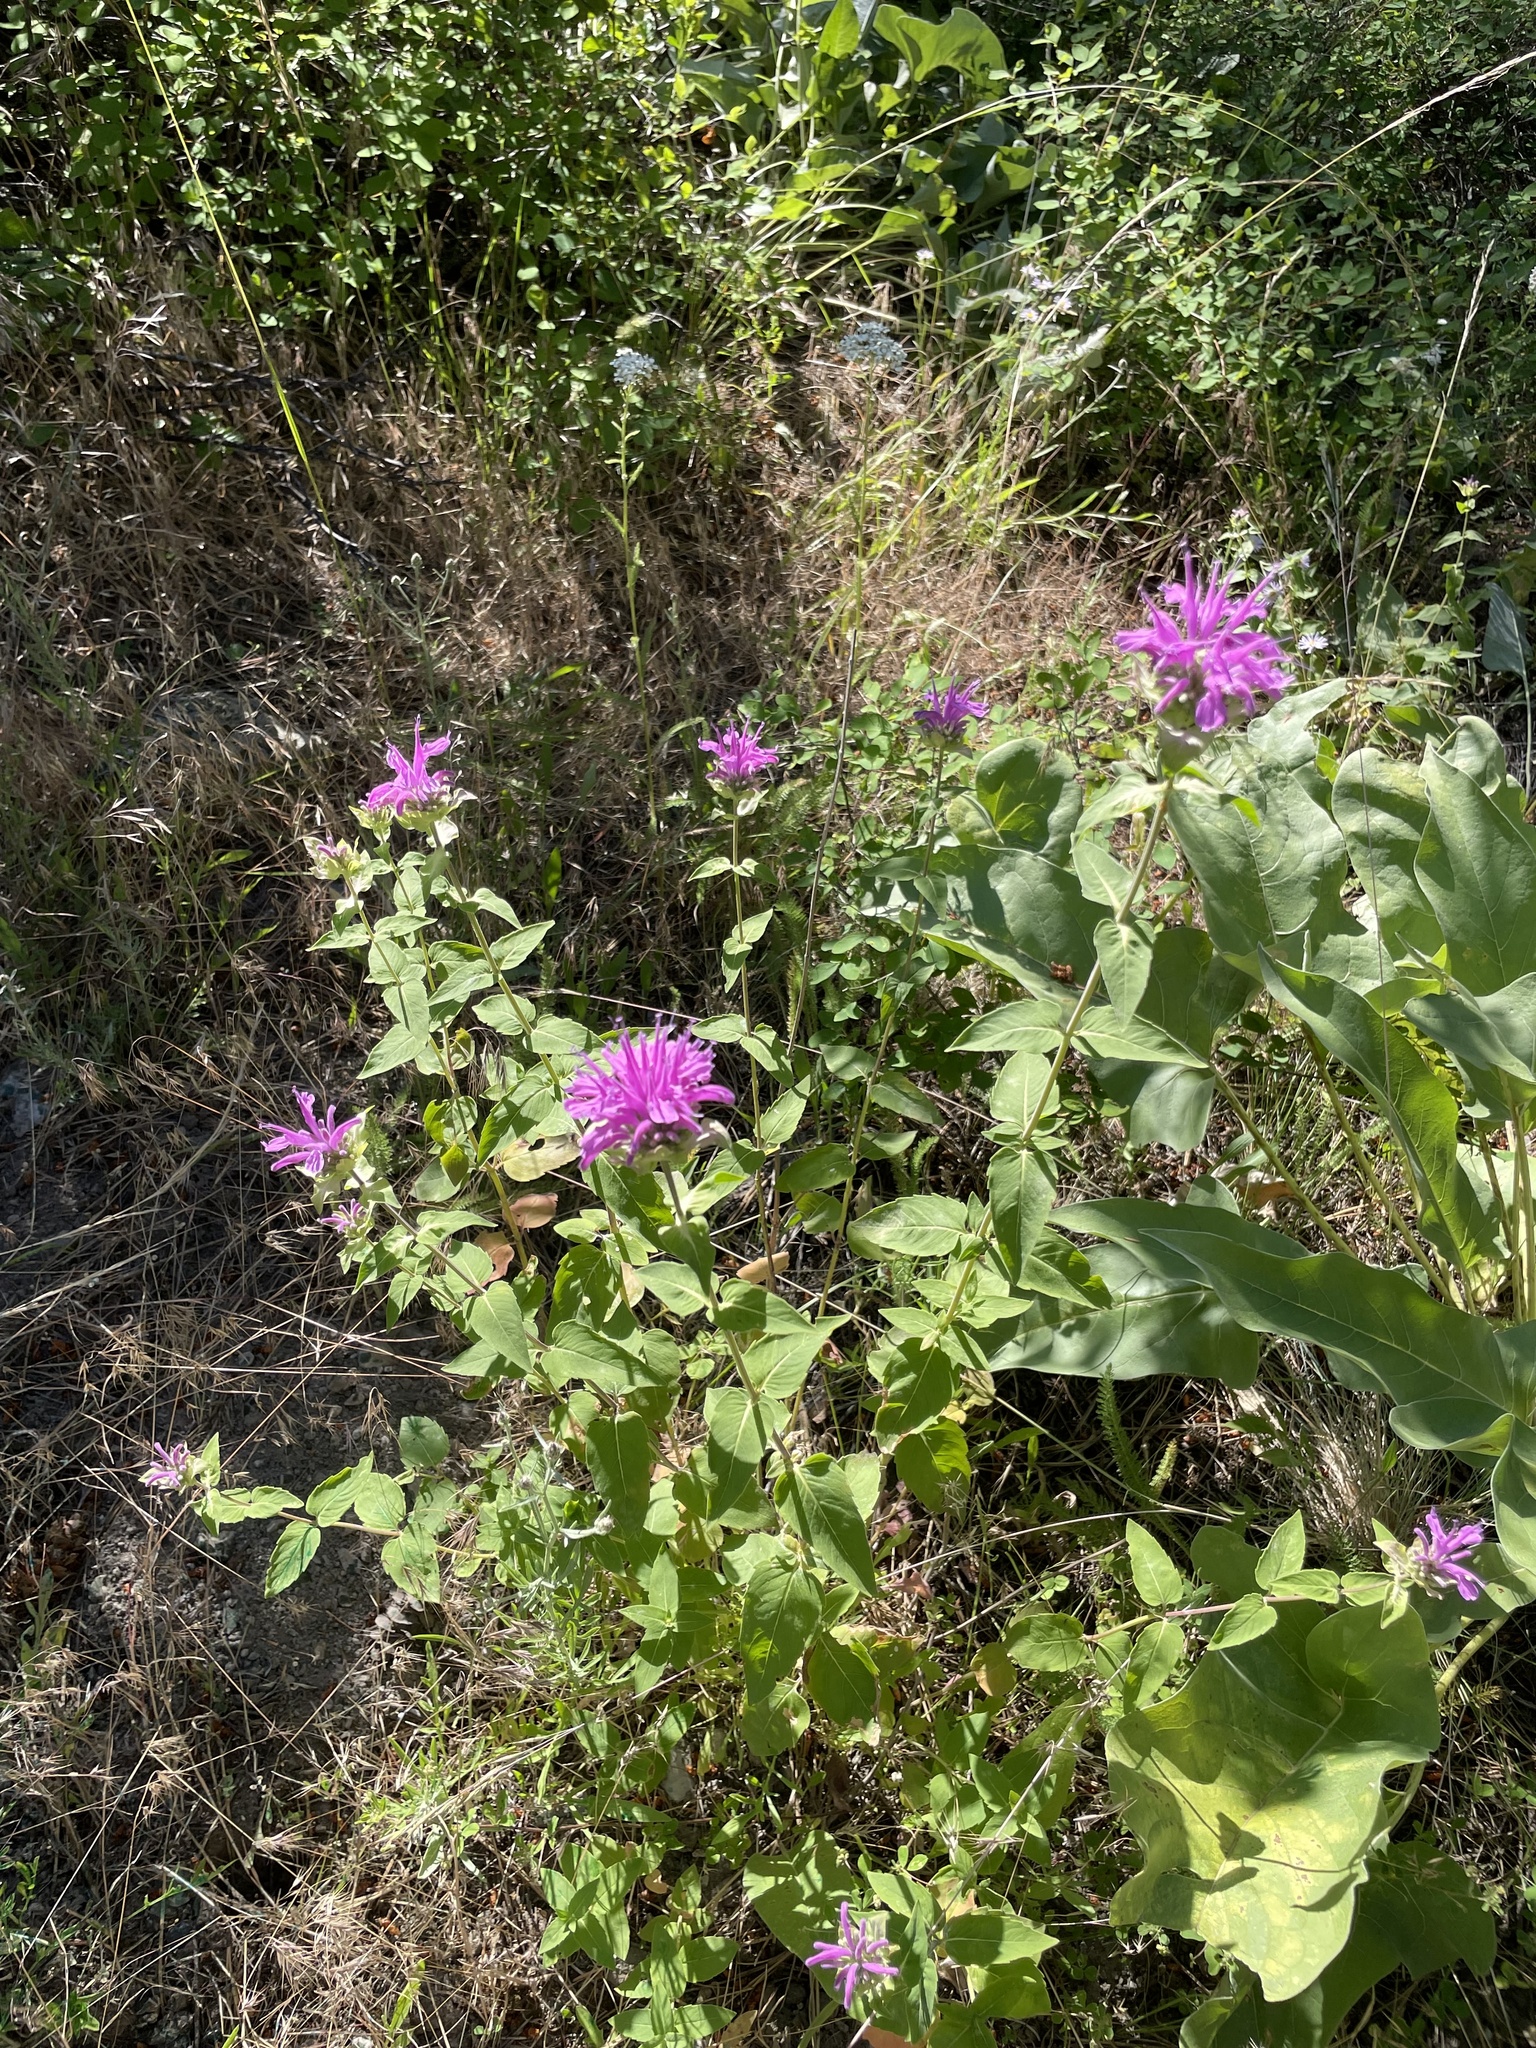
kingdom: Plantae
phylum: Tracheophyta
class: Magnoliopsida
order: Lamiales
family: Lamiaceae
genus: Monarda
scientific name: Monarda fistulosa
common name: Purple beebalm
